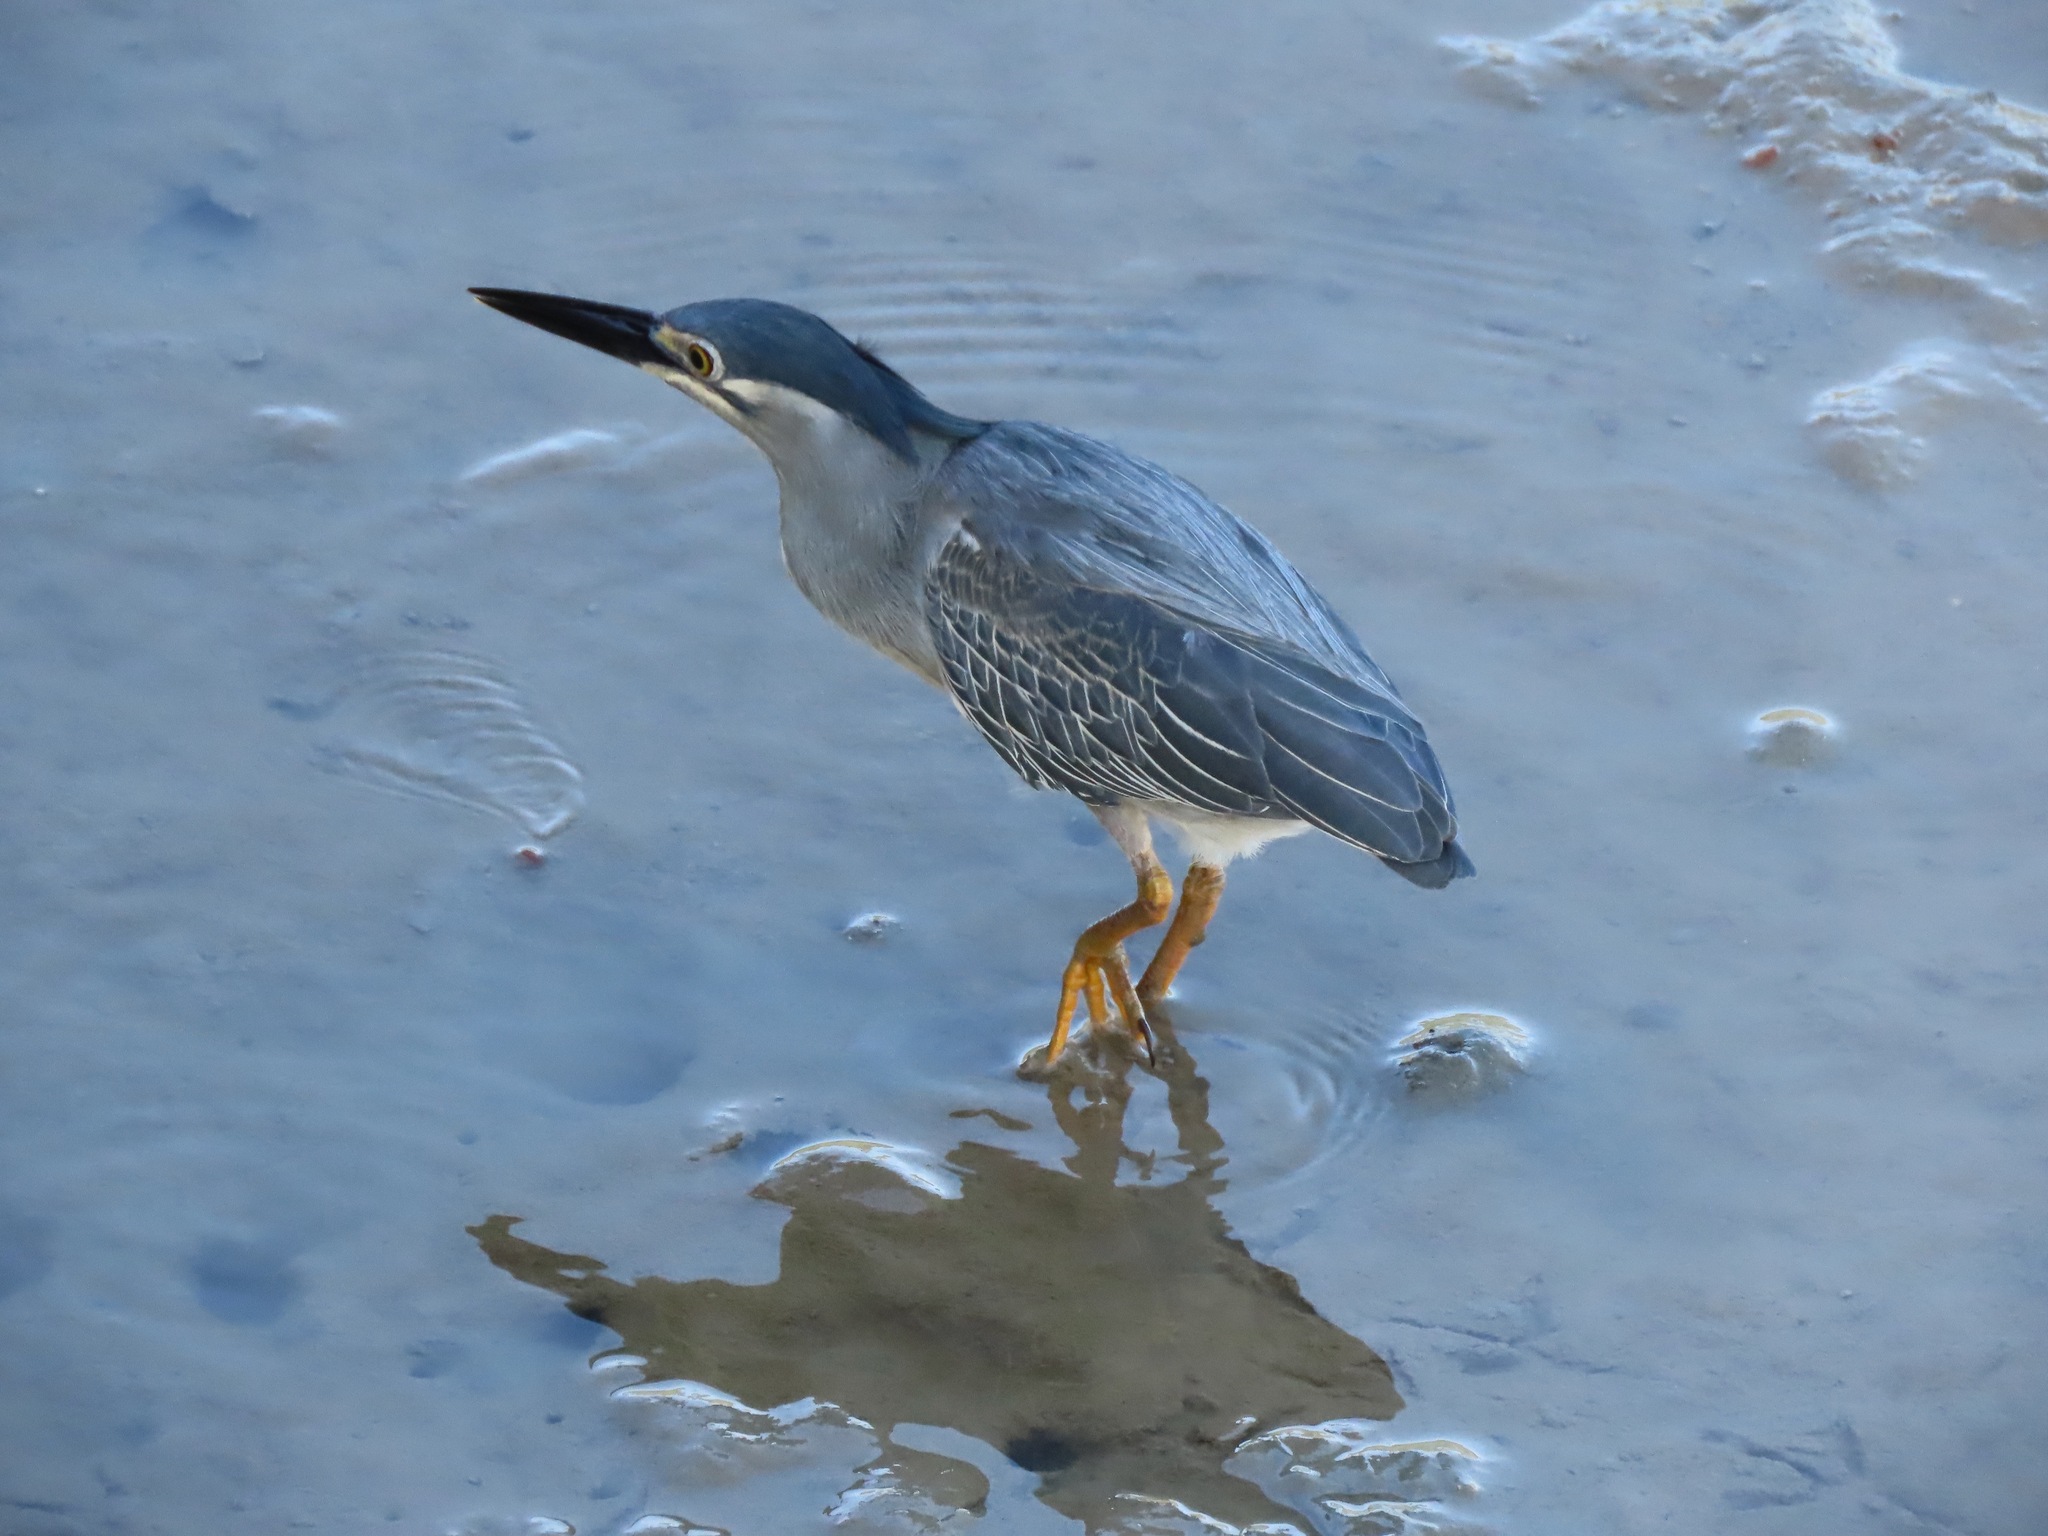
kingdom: Animalia
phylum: Chordata
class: Aves
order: Pelecaniformes
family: Ardeidae
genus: Butorides
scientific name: Butorides striata
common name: Striated heron
